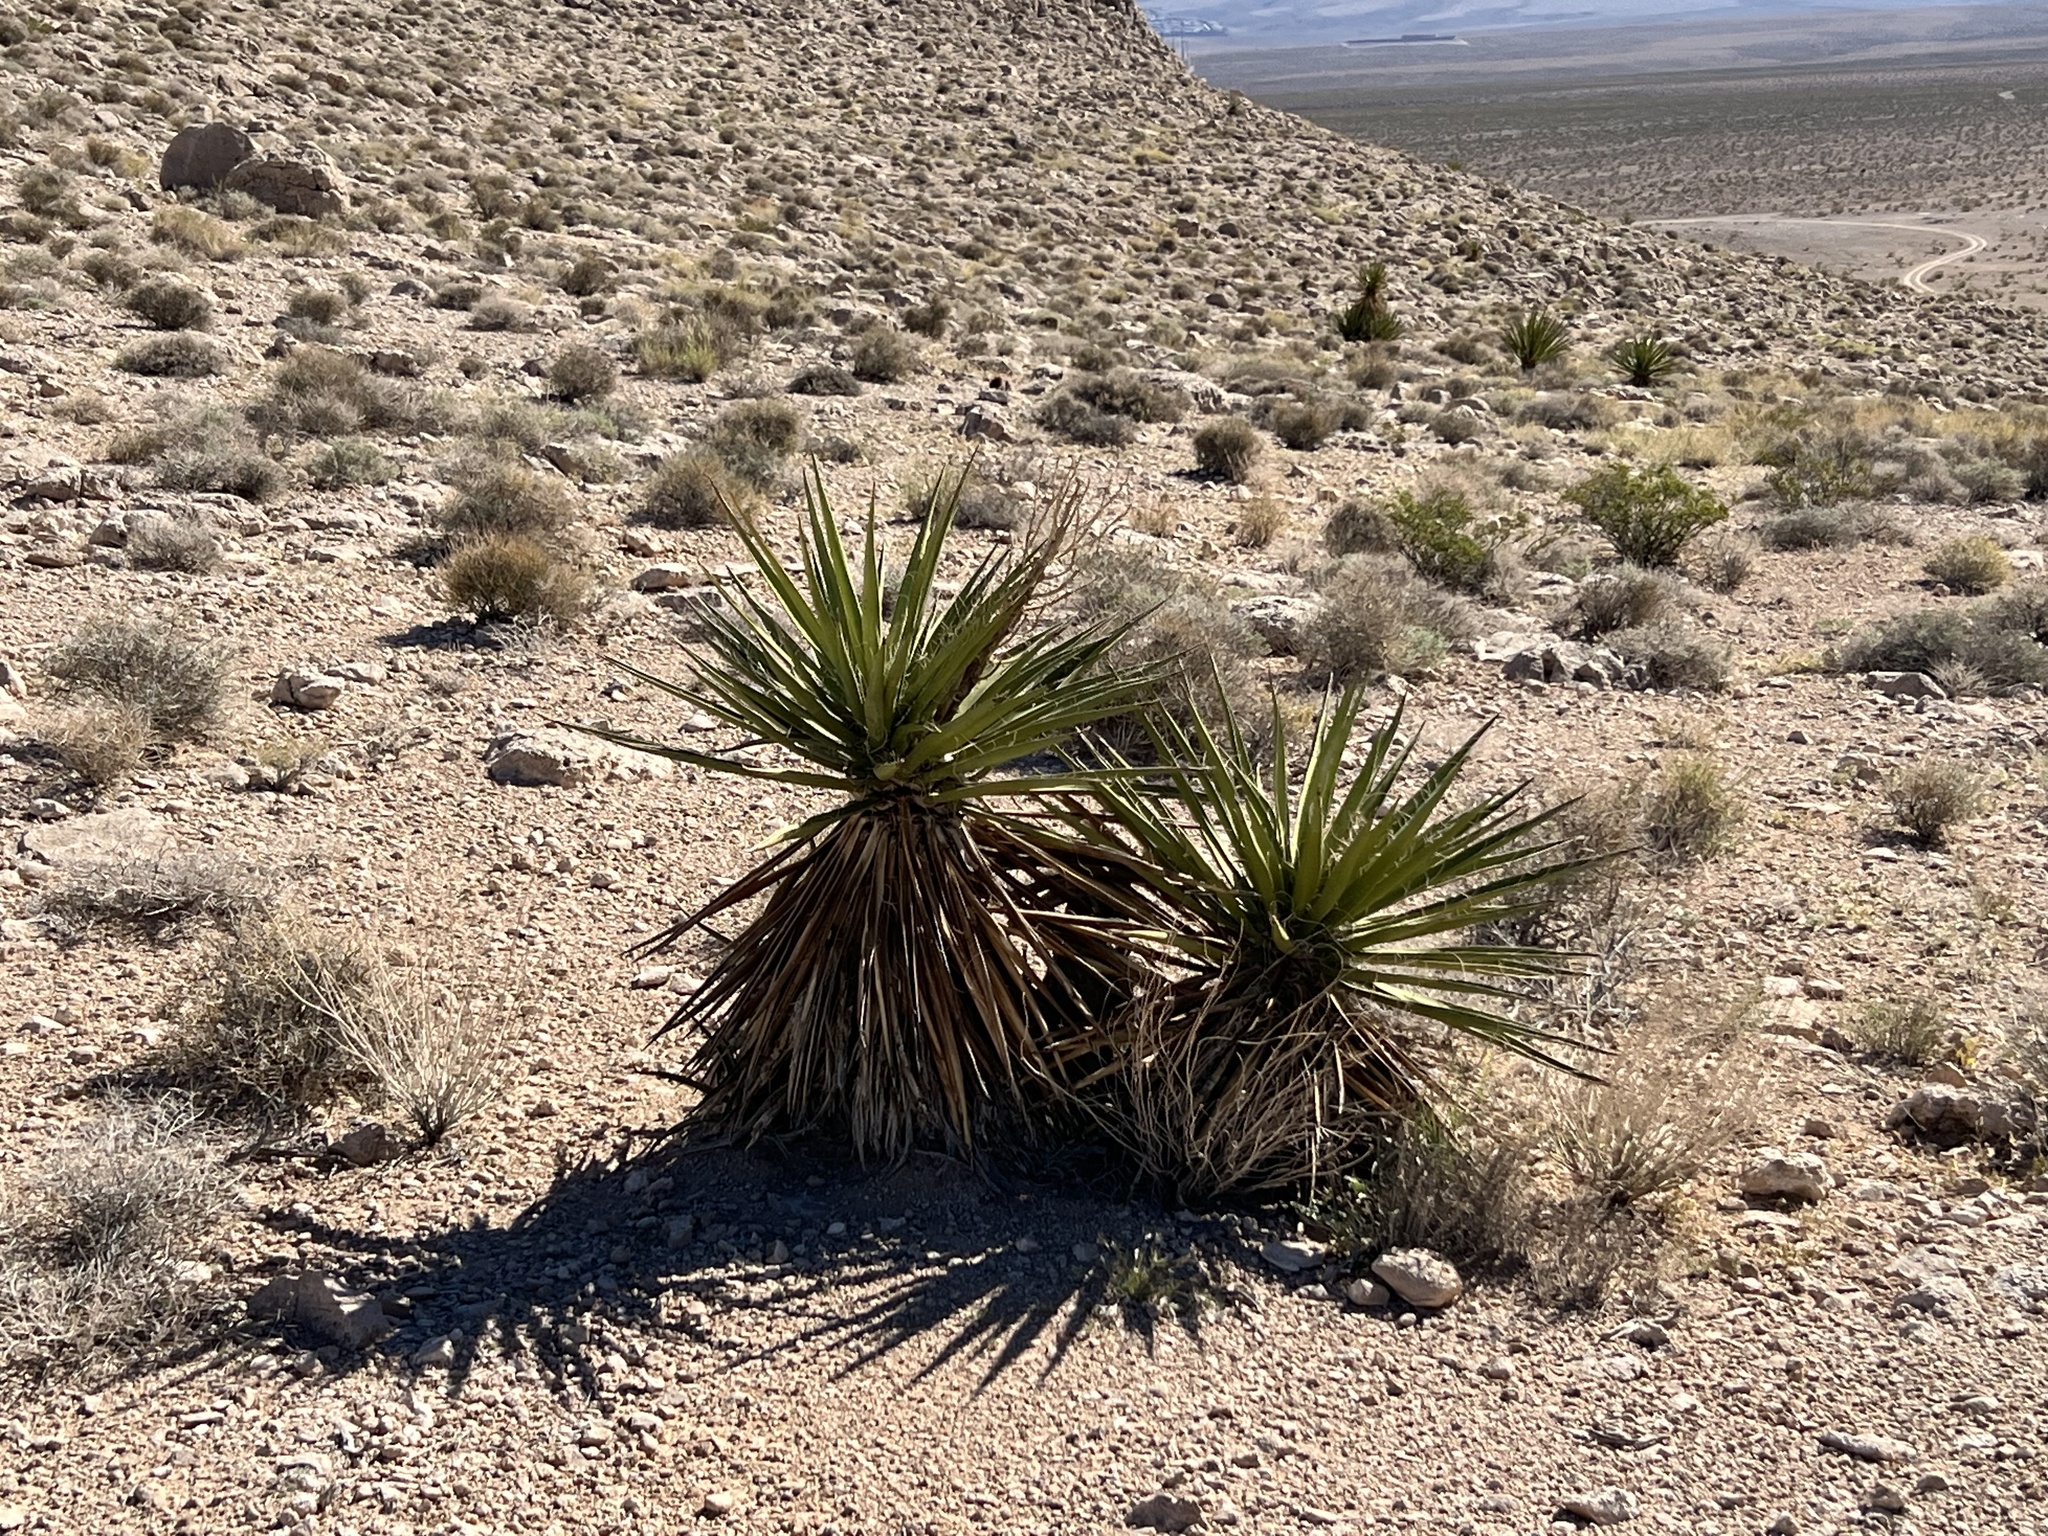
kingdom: Plantae
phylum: Tracheophyta
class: Liliopsida
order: Asparagales
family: Asparagaceae
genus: Yucca
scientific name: Yucca schidigera
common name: Mojave yucca
